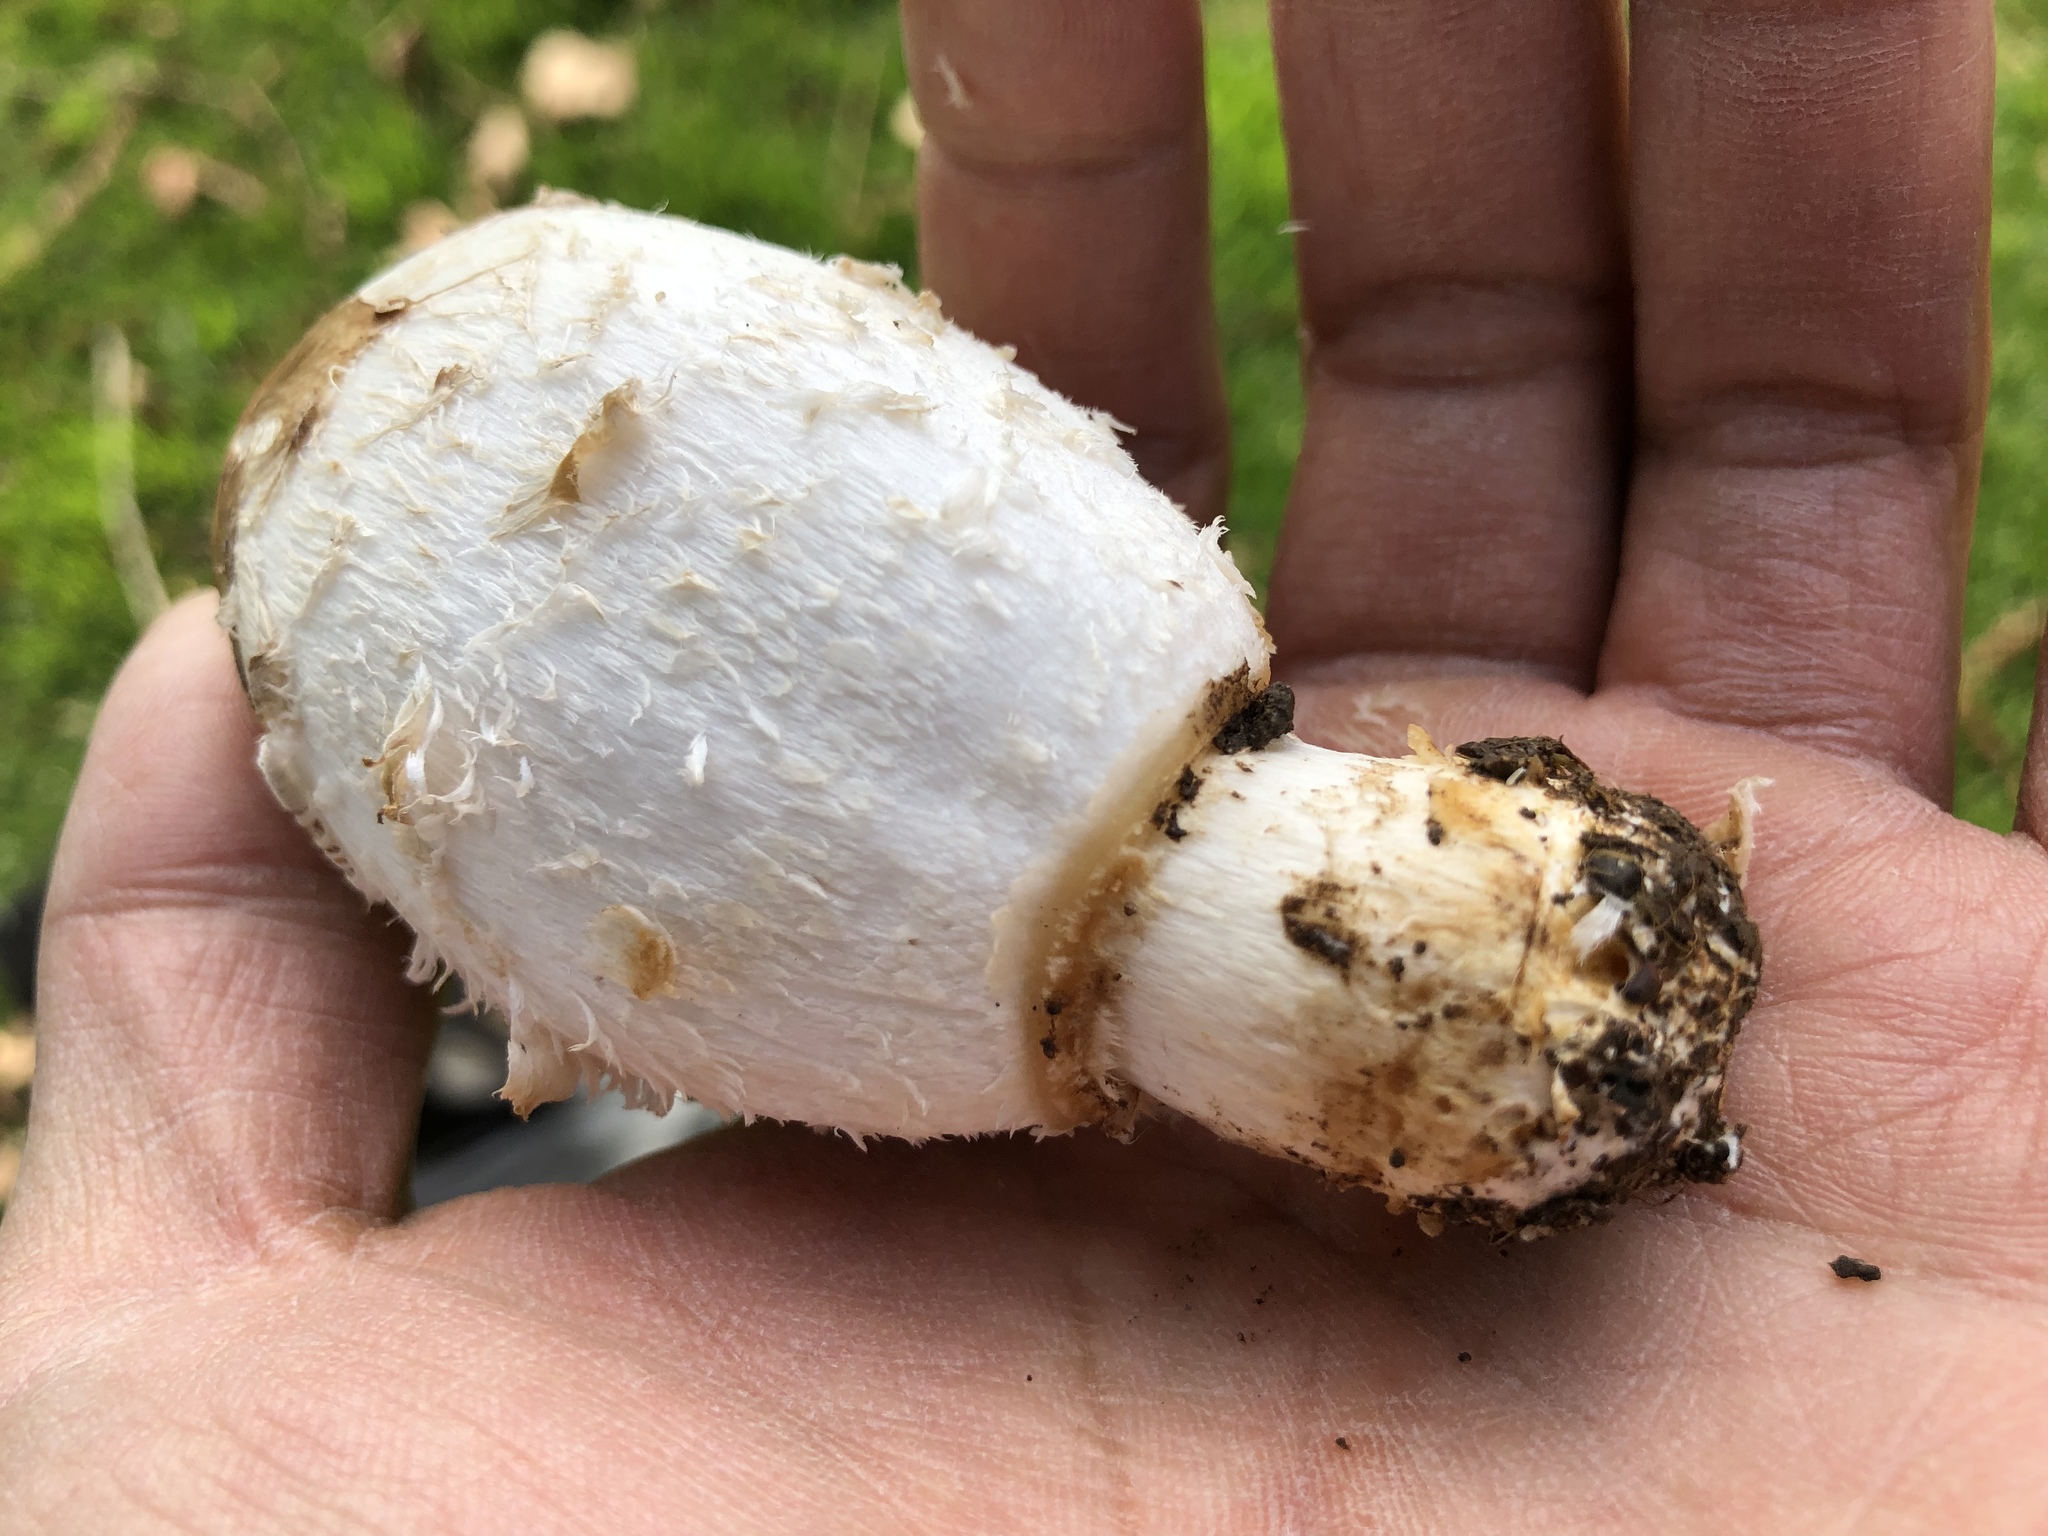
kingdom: Fungi
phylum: Basidiomycota
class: Agaricomycetes
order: Agaricales
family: Agaricaceae
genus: Coprinus
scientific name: Coprinus comatus
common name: Lawyer's wig
